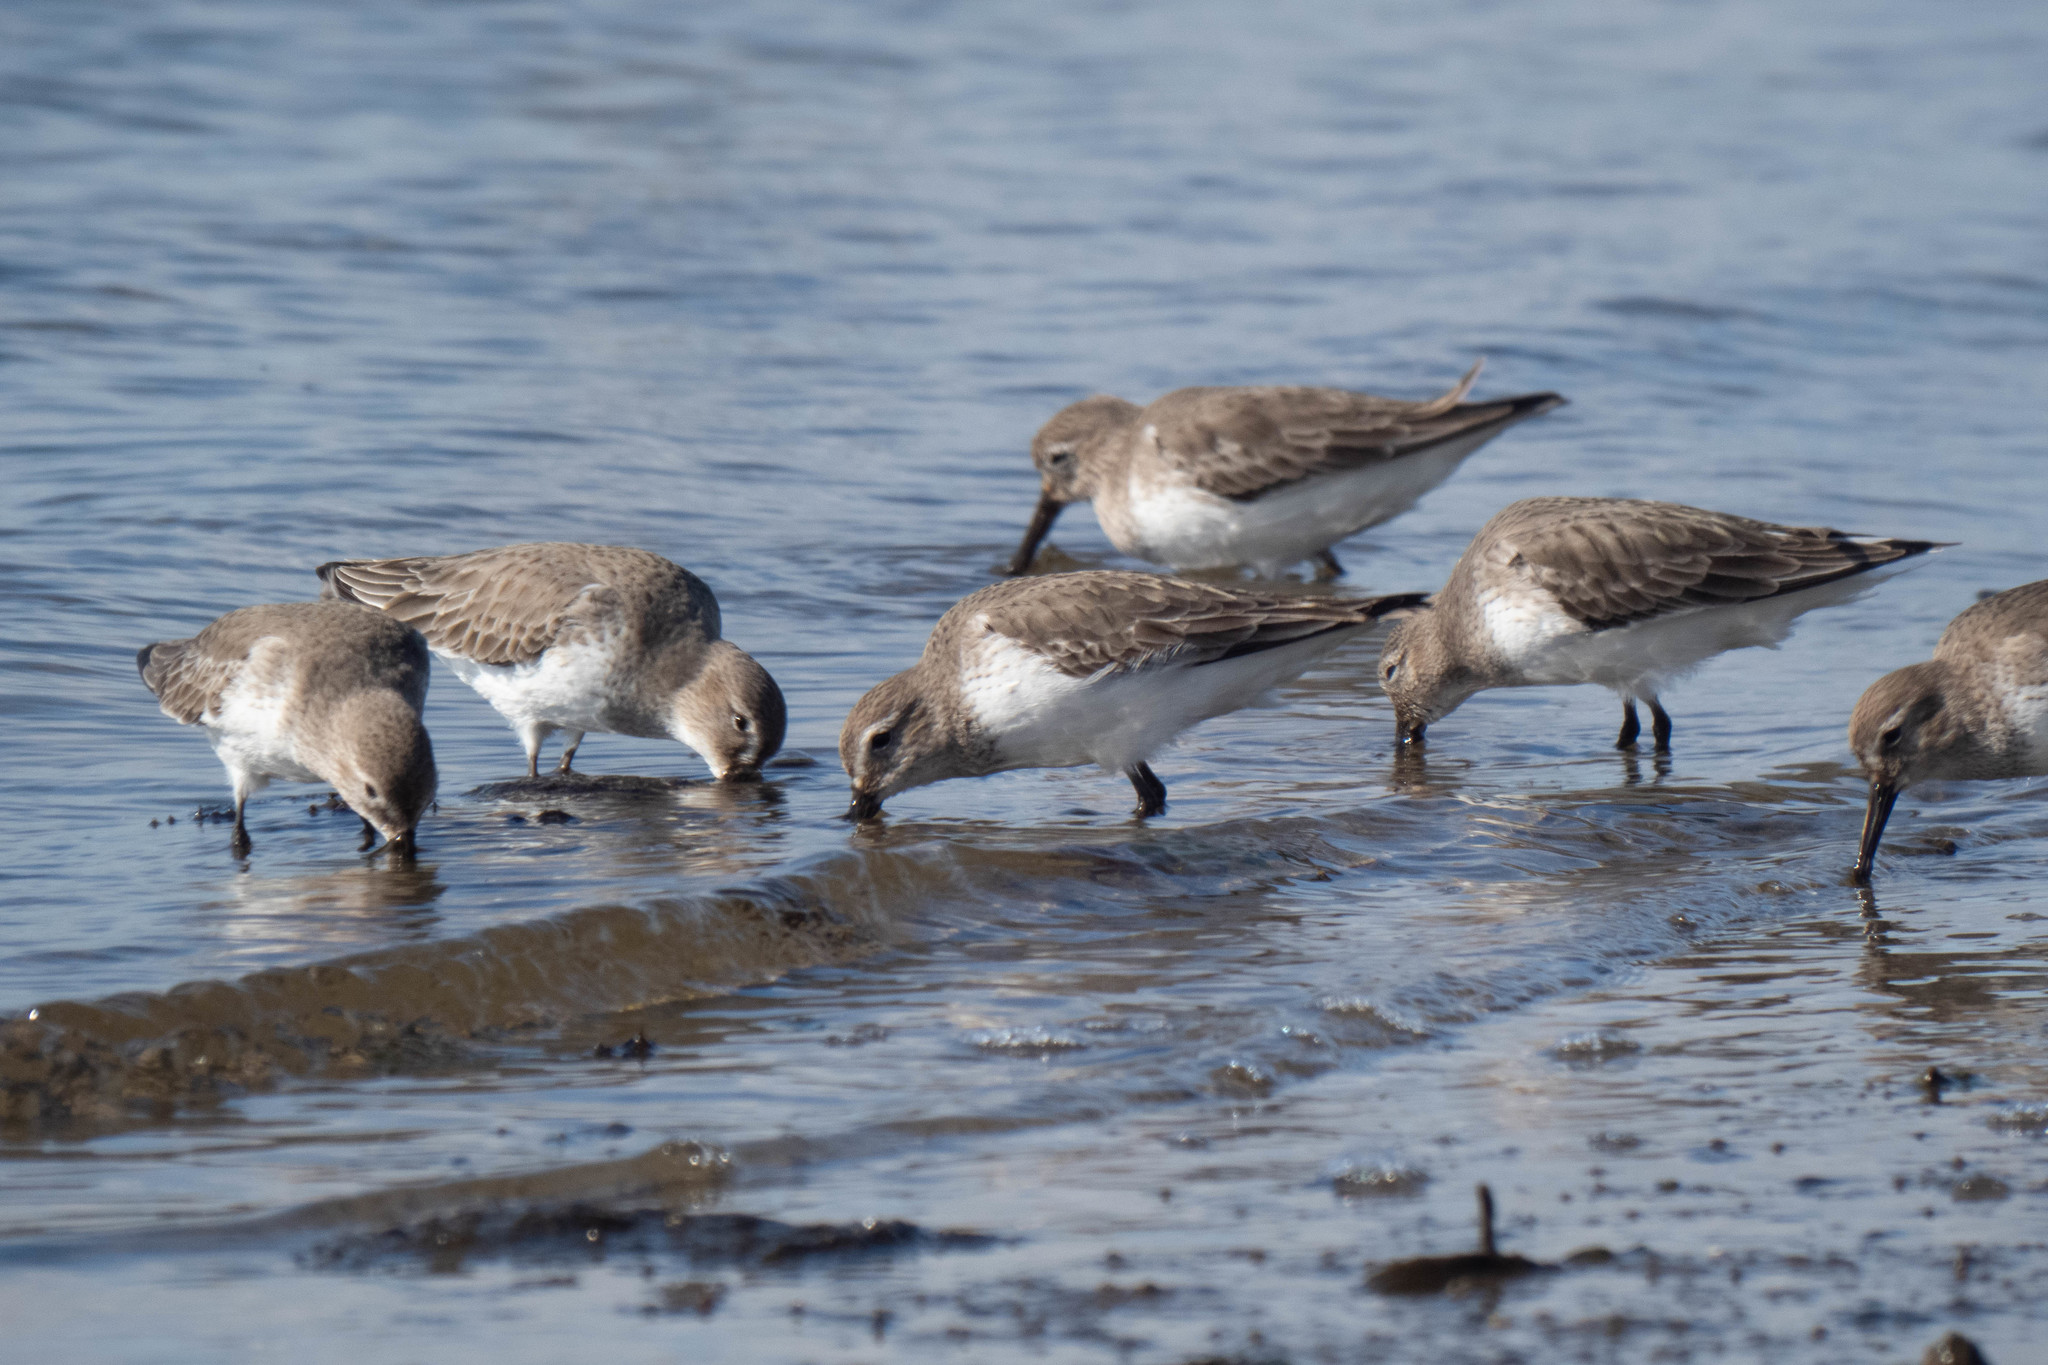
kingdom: Animalia
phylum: Chordata
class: Aves
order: Charadriiformes
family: Scolopacidae
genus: Calidris
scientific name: Calidris alpina
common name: Dunlin
